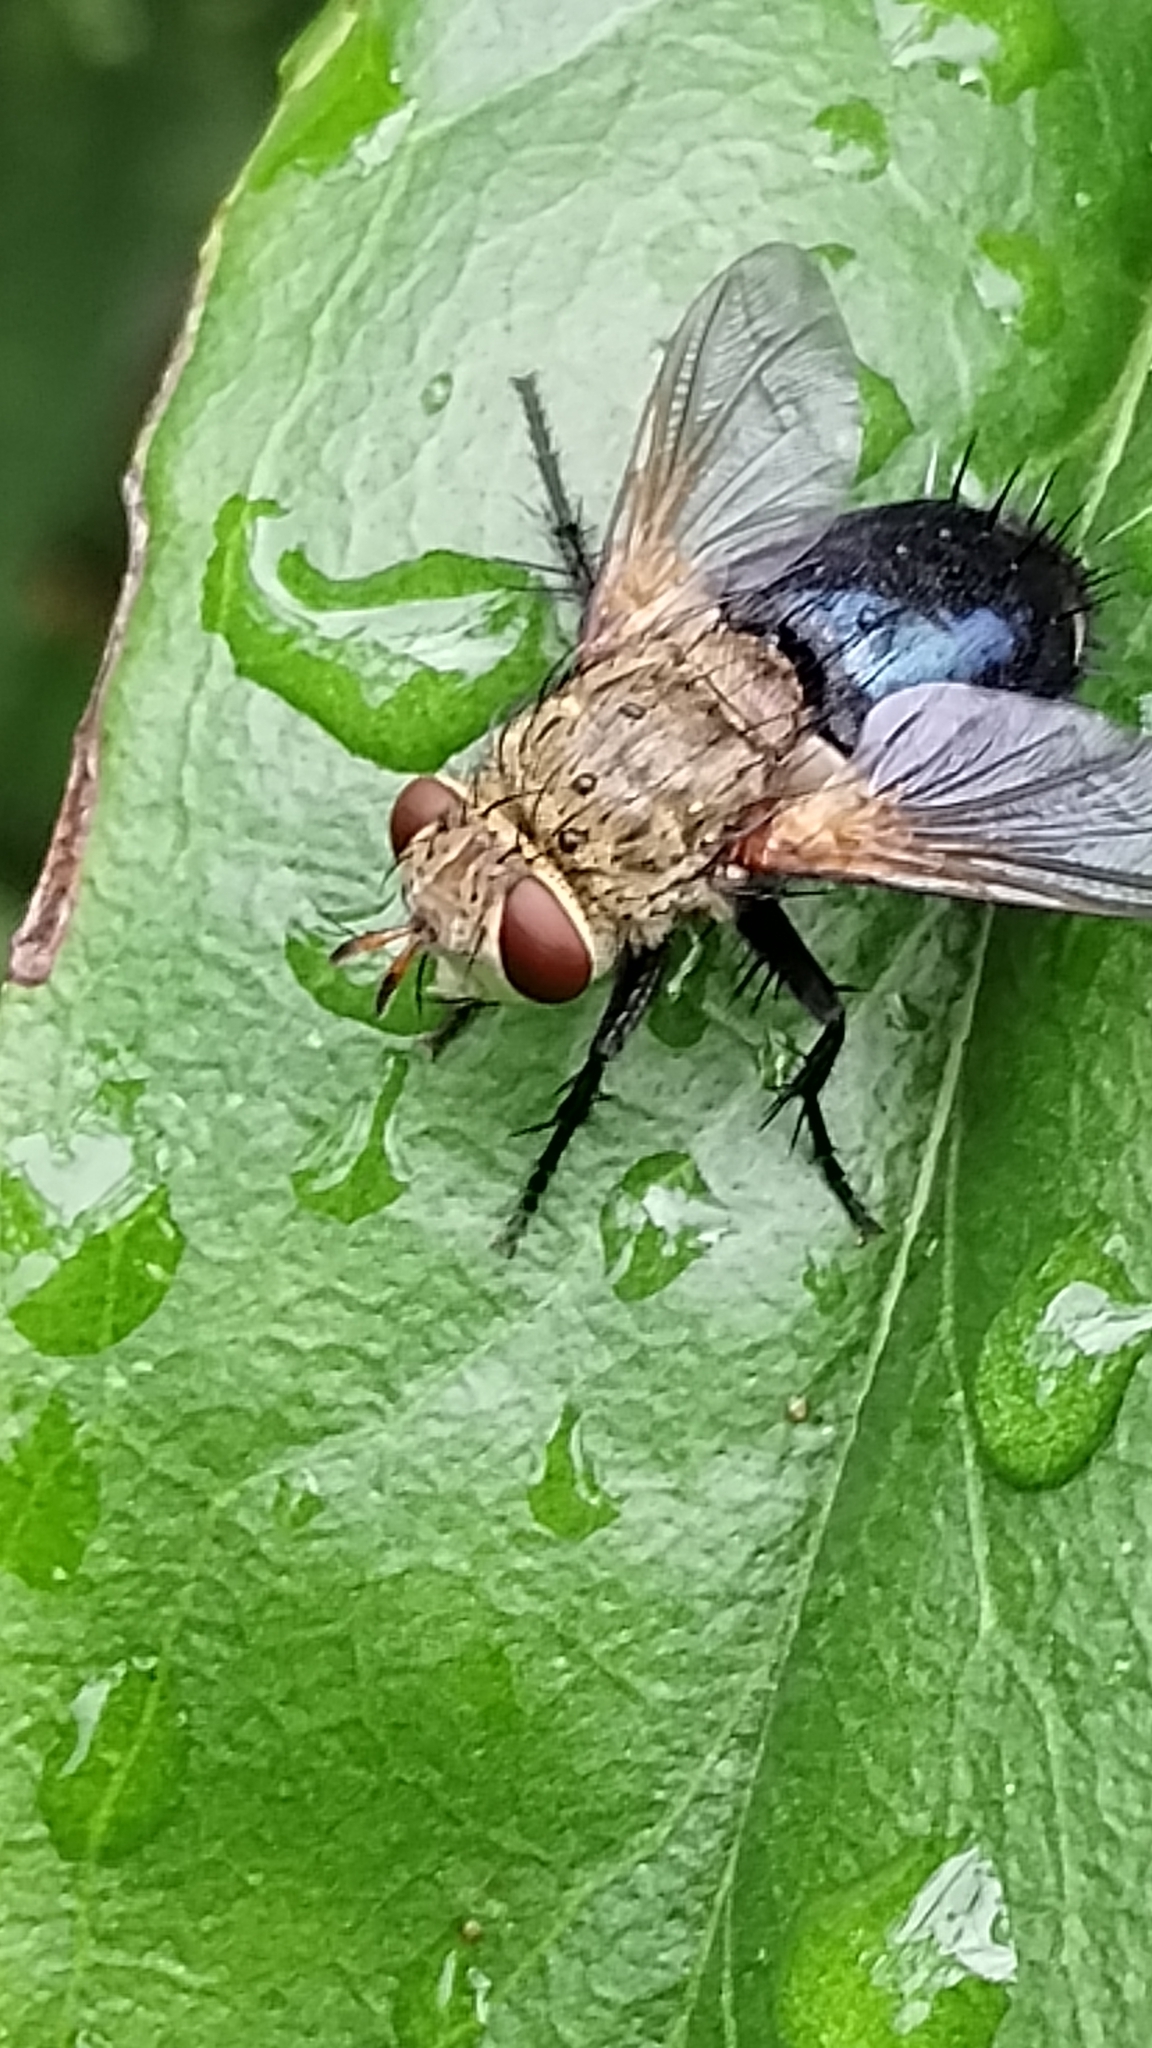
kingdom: Animalia
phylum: Arthropoda
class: Insecta
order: Diptera
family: Tachinidae
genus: Archytas
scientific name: Archytas apicifer
